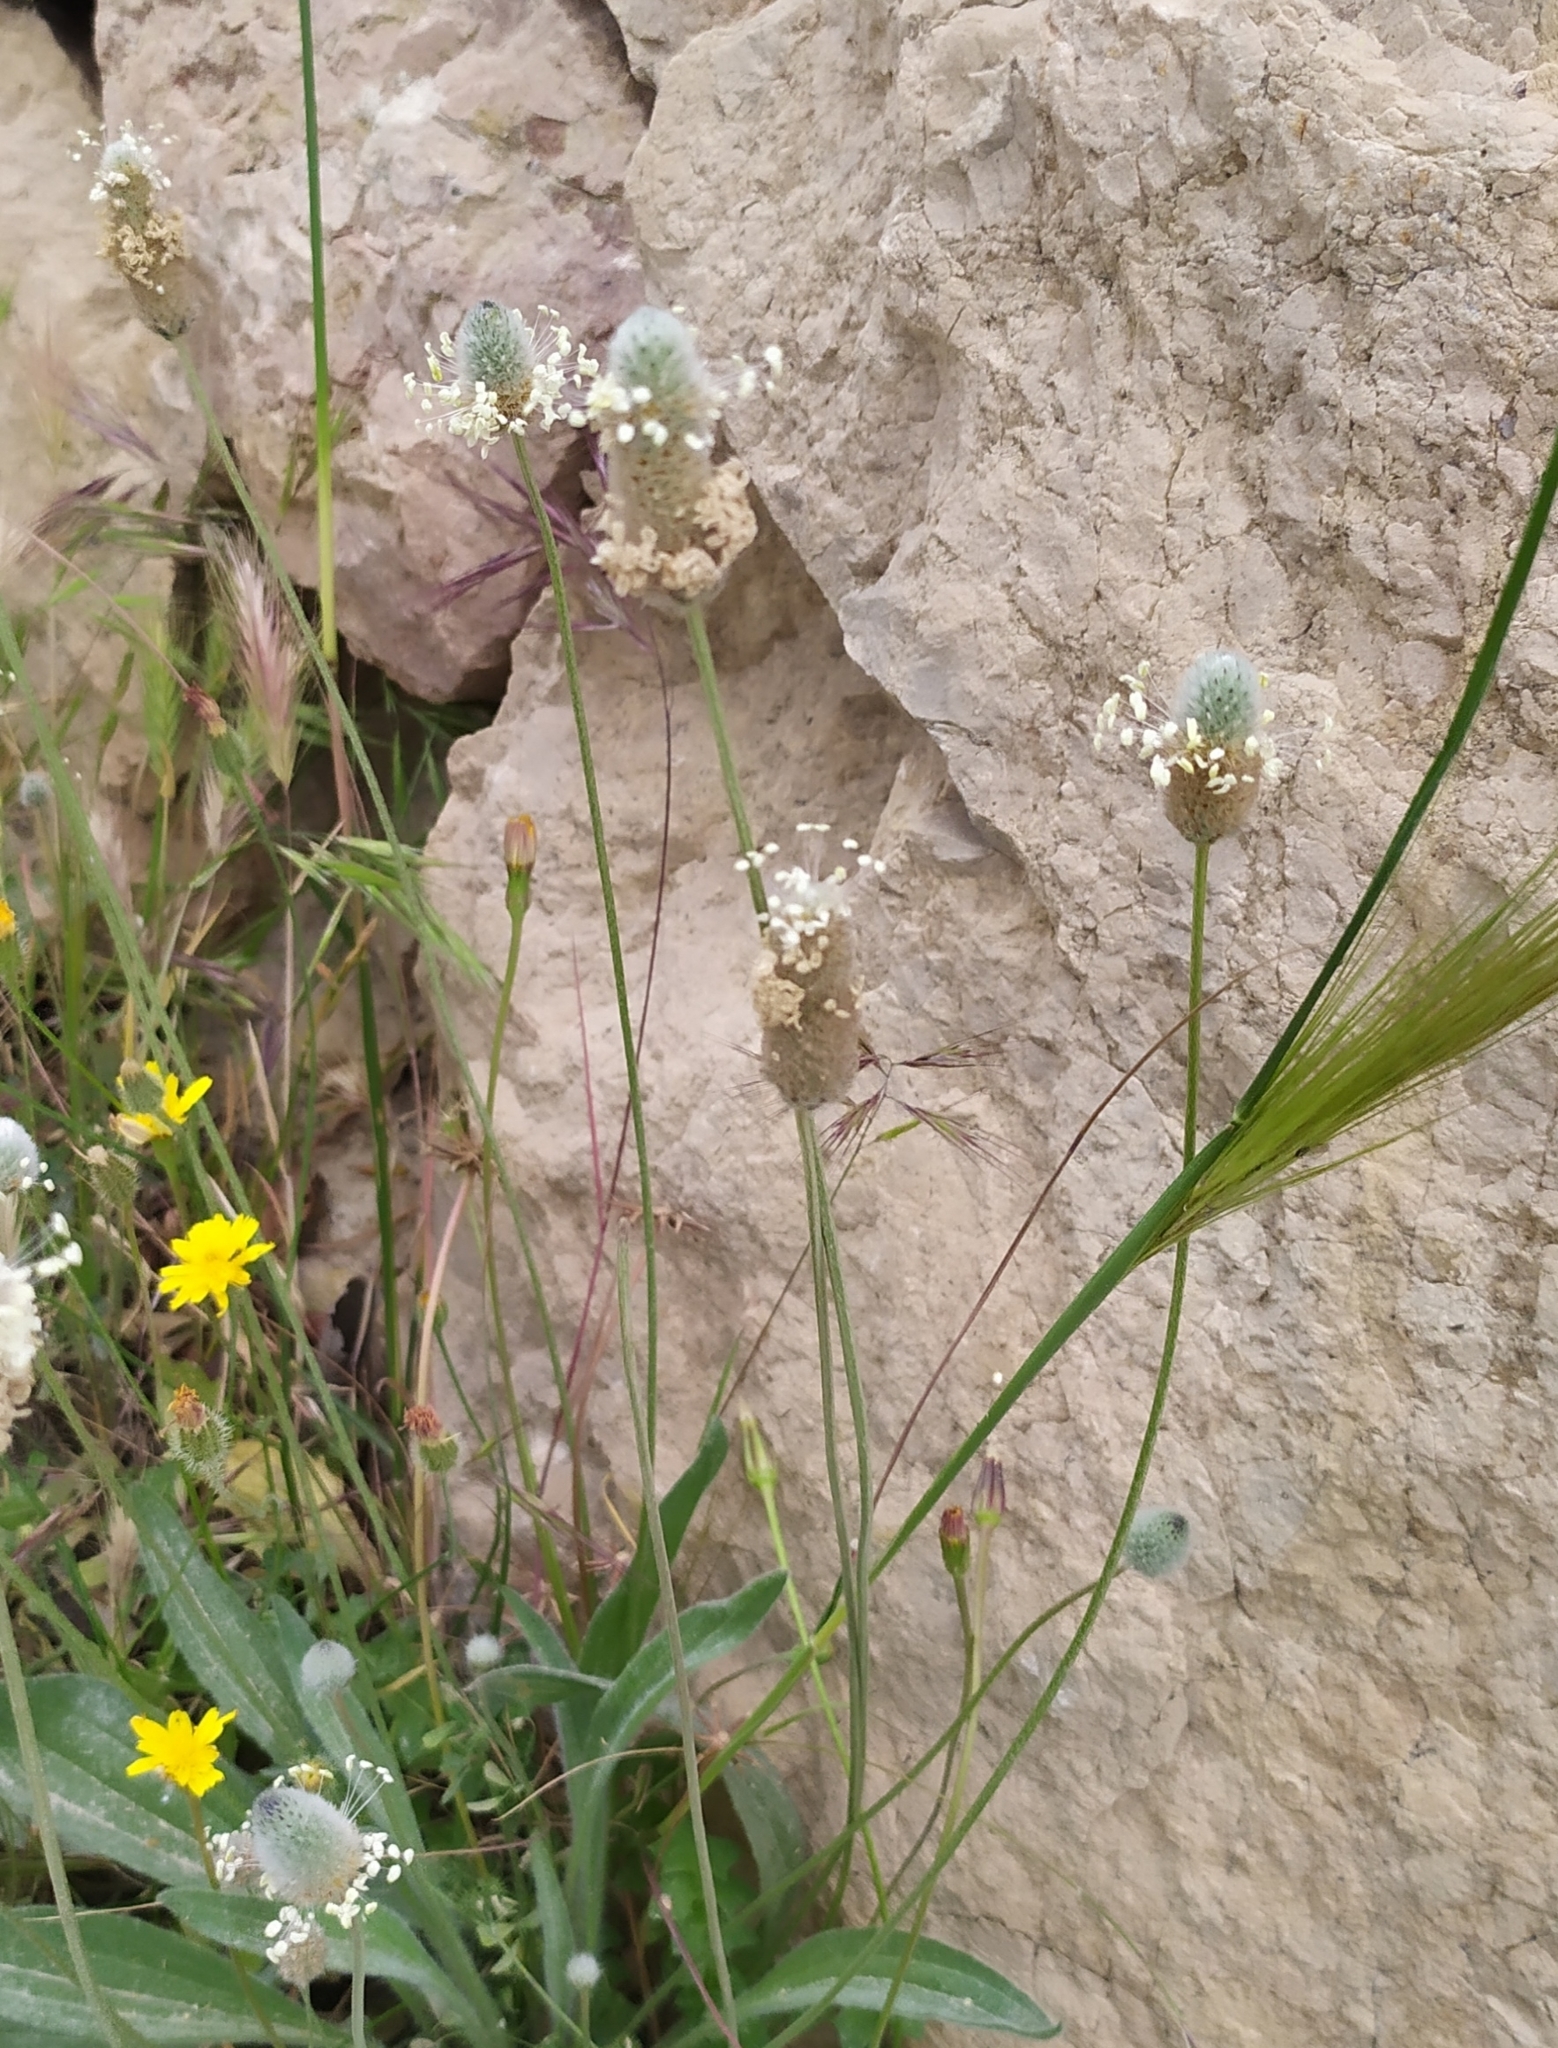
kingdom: Plantae
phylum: Tracheophyta
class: Magnoliopsida
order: Lamiales
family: Plantaginaceae
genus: Plantago
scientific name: Plantago lagopus
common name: Hare-foot plantain
